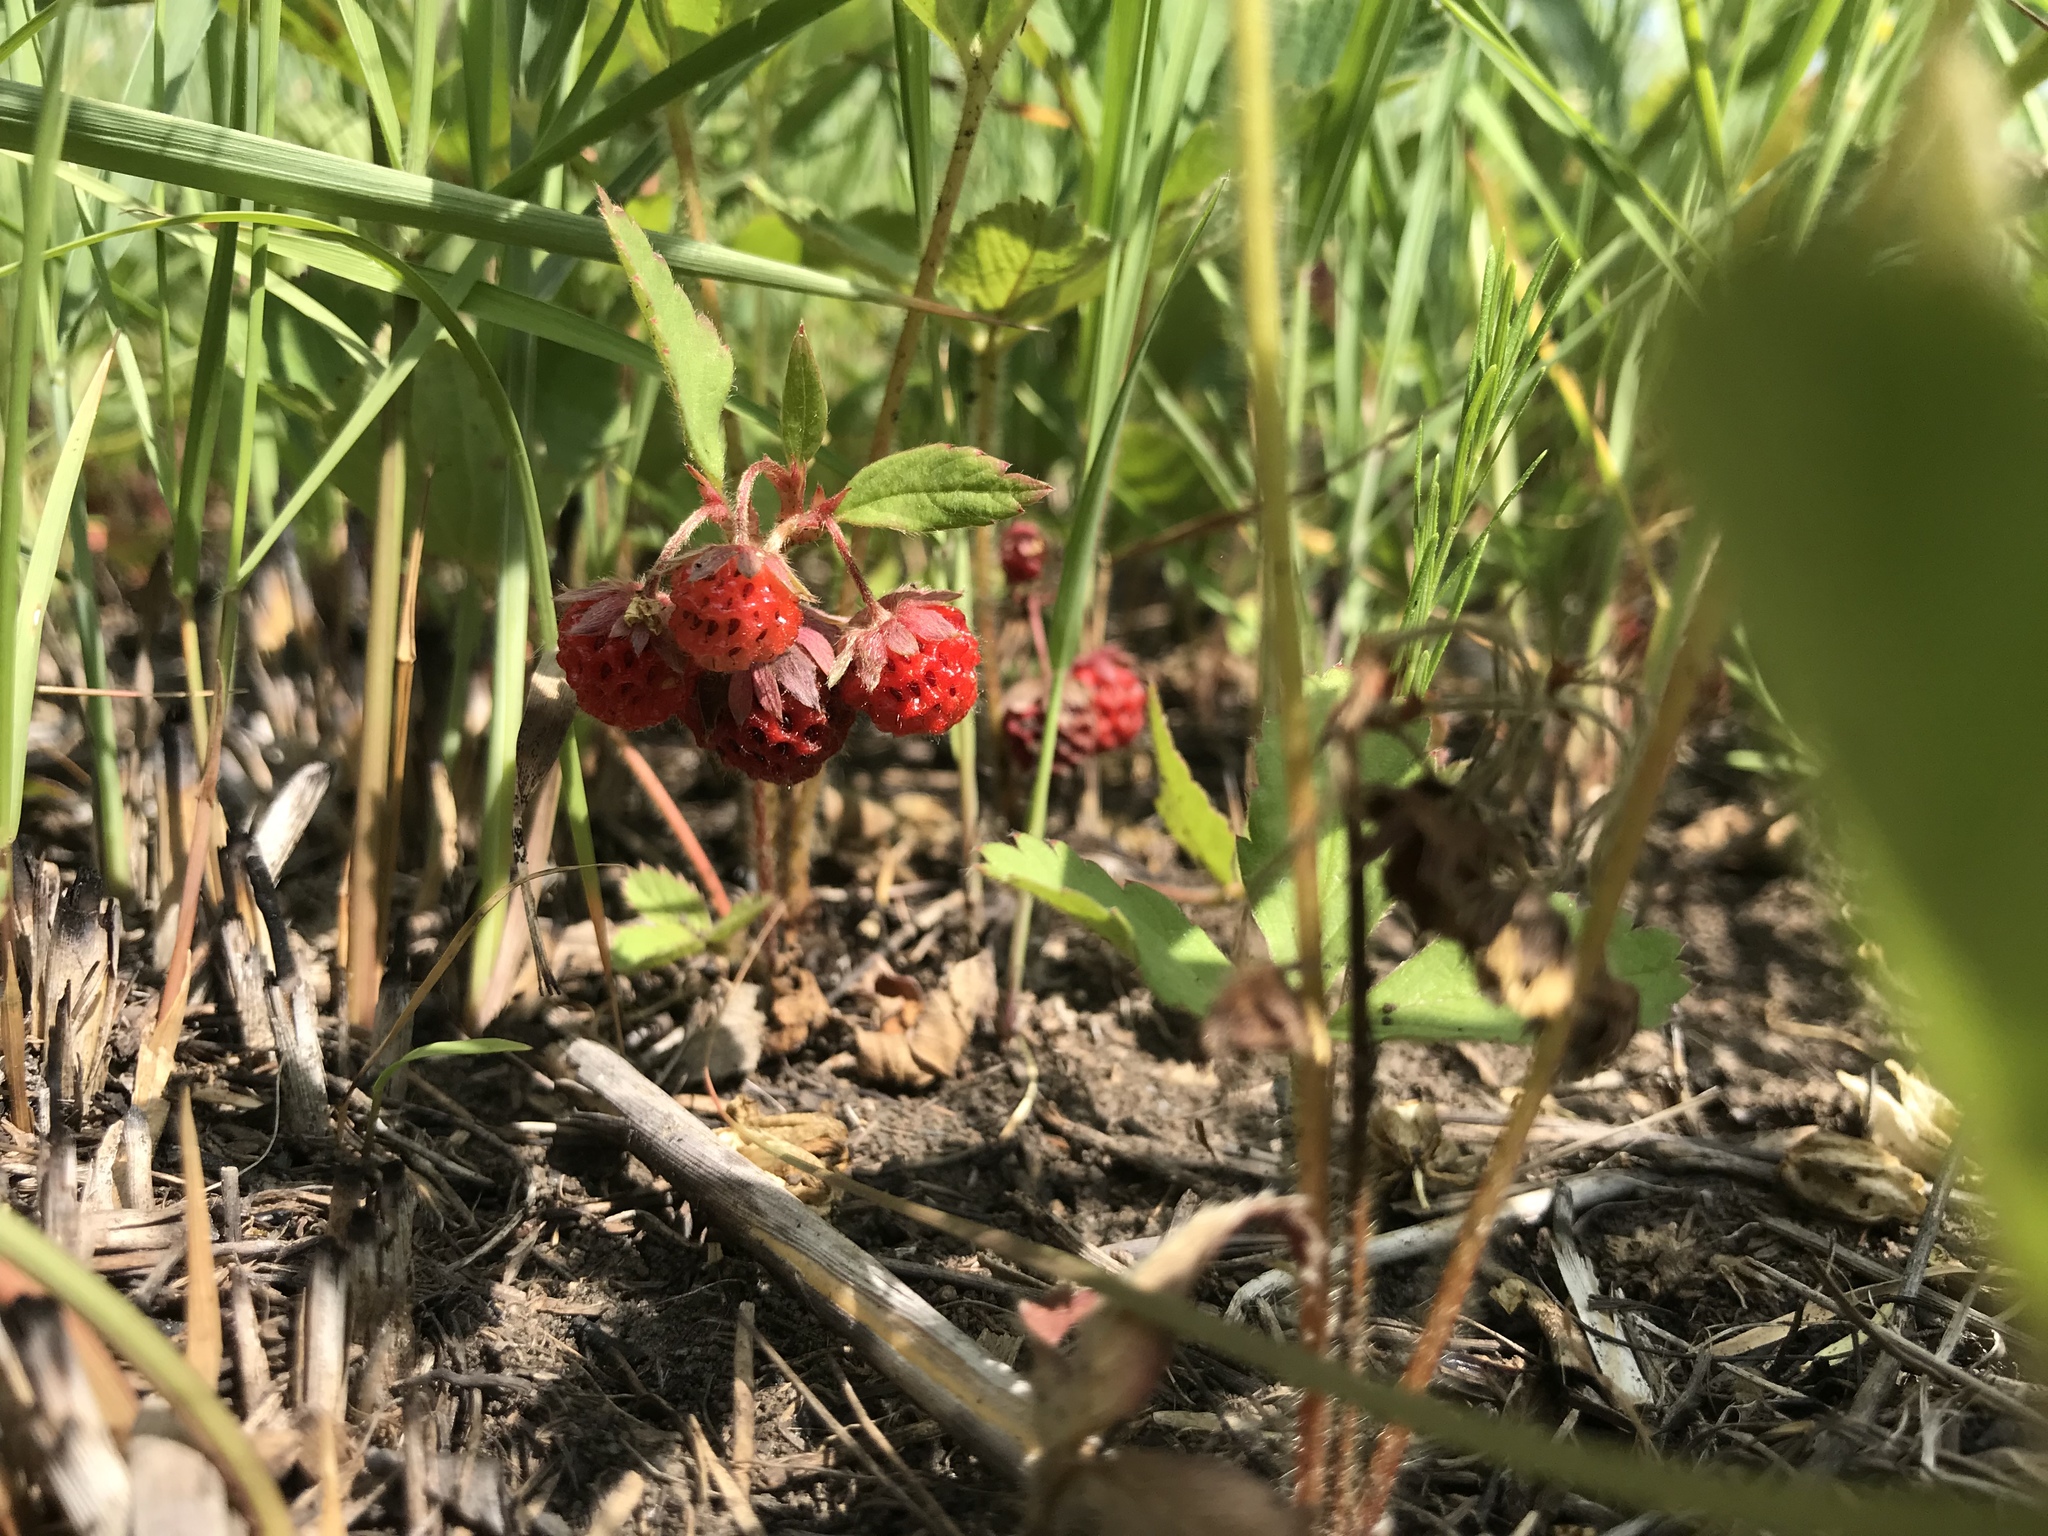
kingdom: Plantae
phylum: Tracheophyta
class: Magnoliopsida
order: Rosales
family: Rosaceae
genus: Fragaria
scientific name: Fragaria virginiana
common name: Thickleaved wild strawberry
